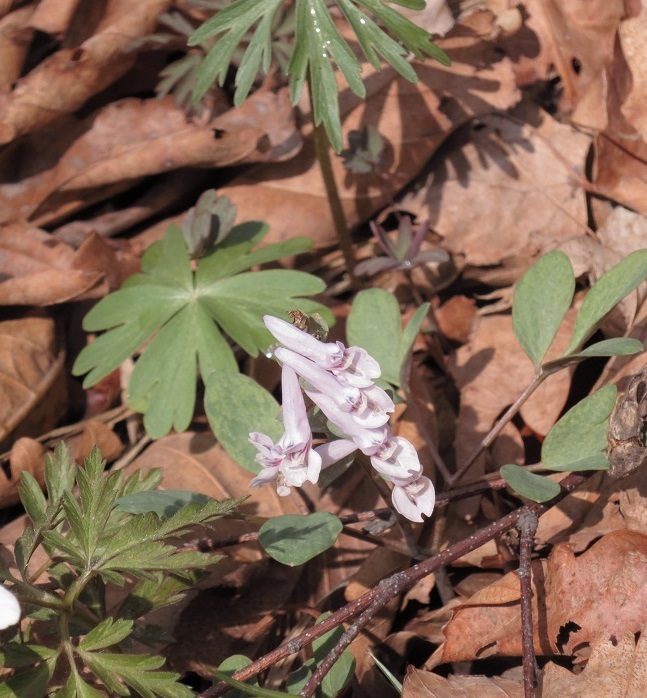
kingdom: Plantae
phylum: Tracheophyta
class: Magnoliopsida
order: Ranunculales
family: Papaveraceae
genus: Corydalis
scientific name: Corydalis repens
